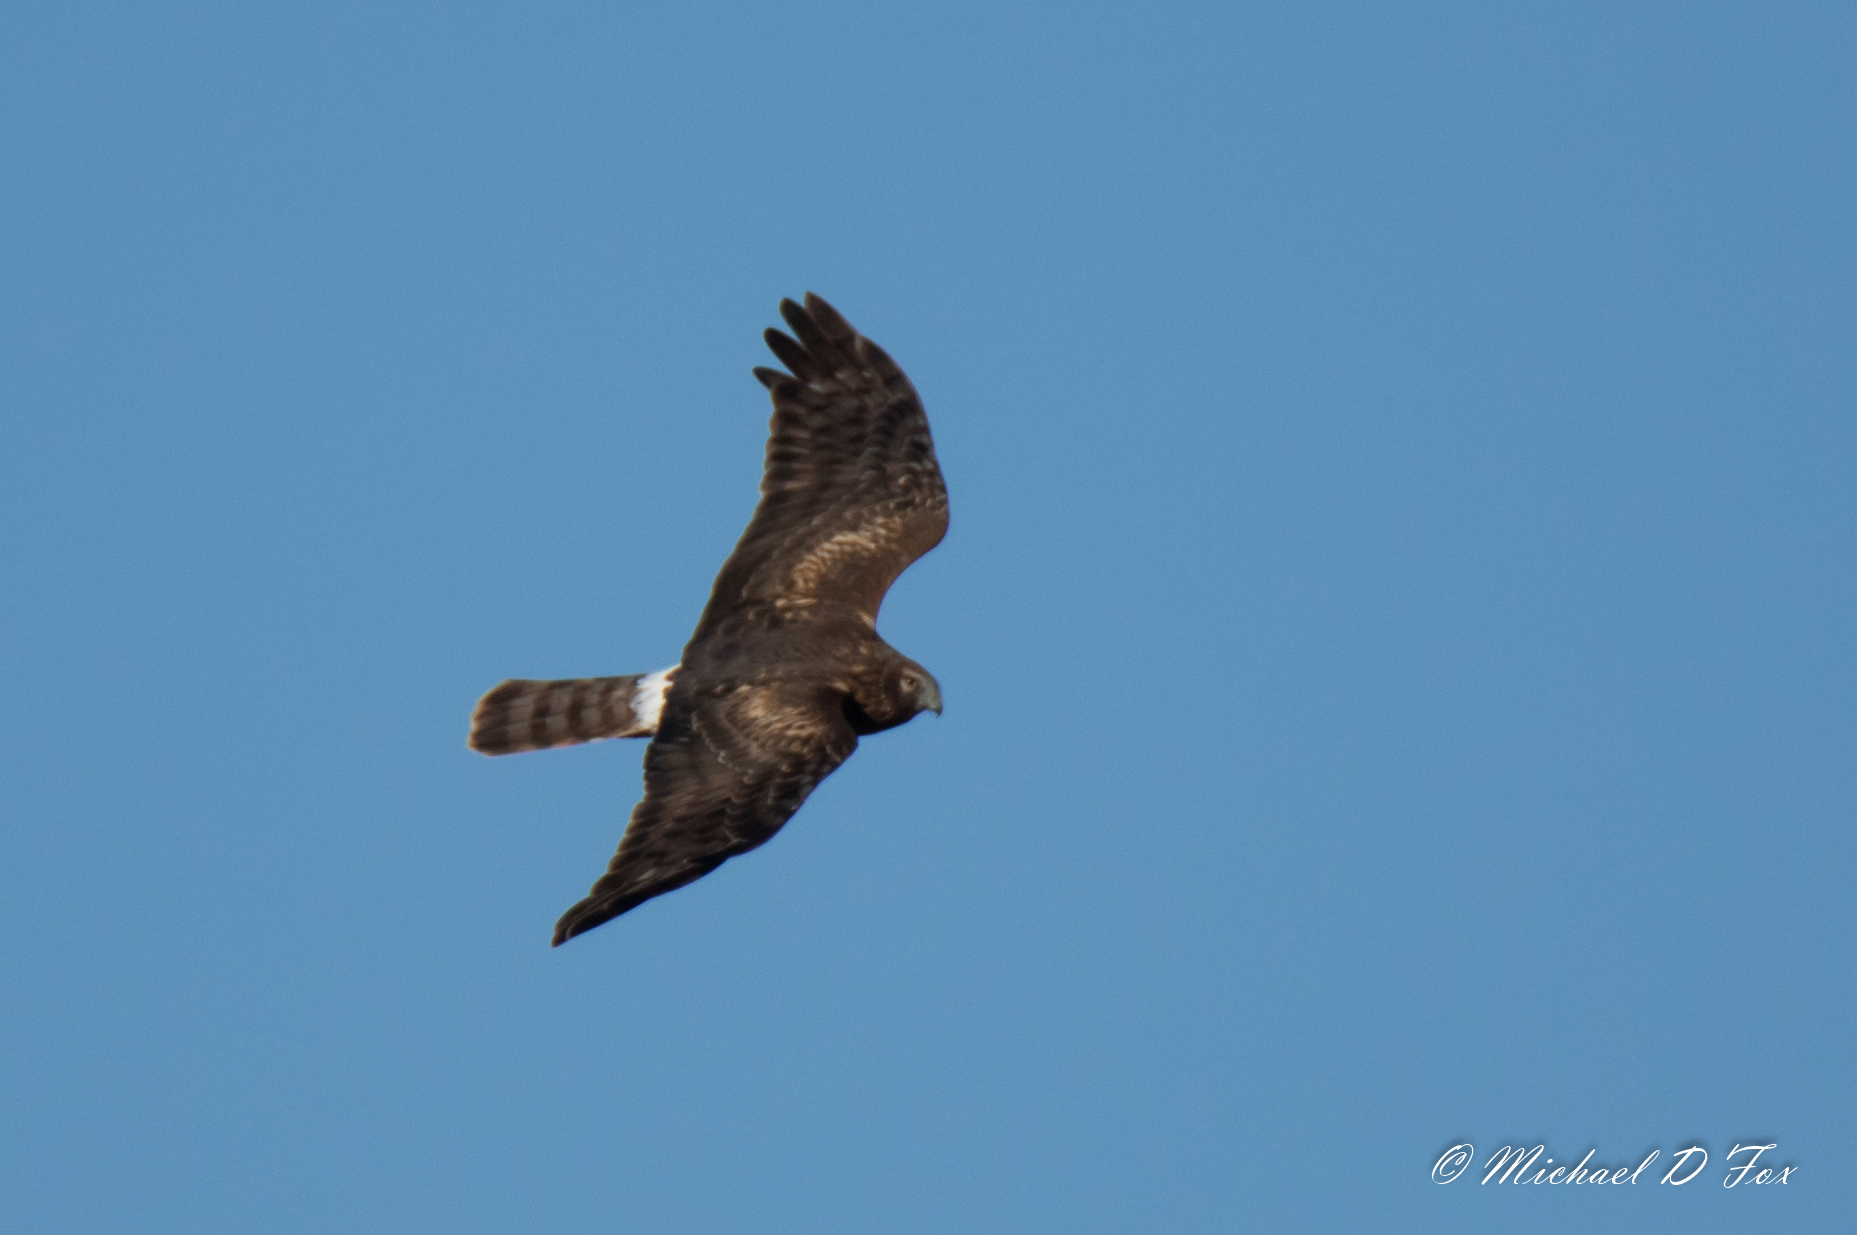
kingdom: Animalia
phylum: Chordata
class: Aves
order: Accipitriformes
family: Accipitridae
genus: Circus
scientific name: Circus cyaneus
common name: Hen harrier
